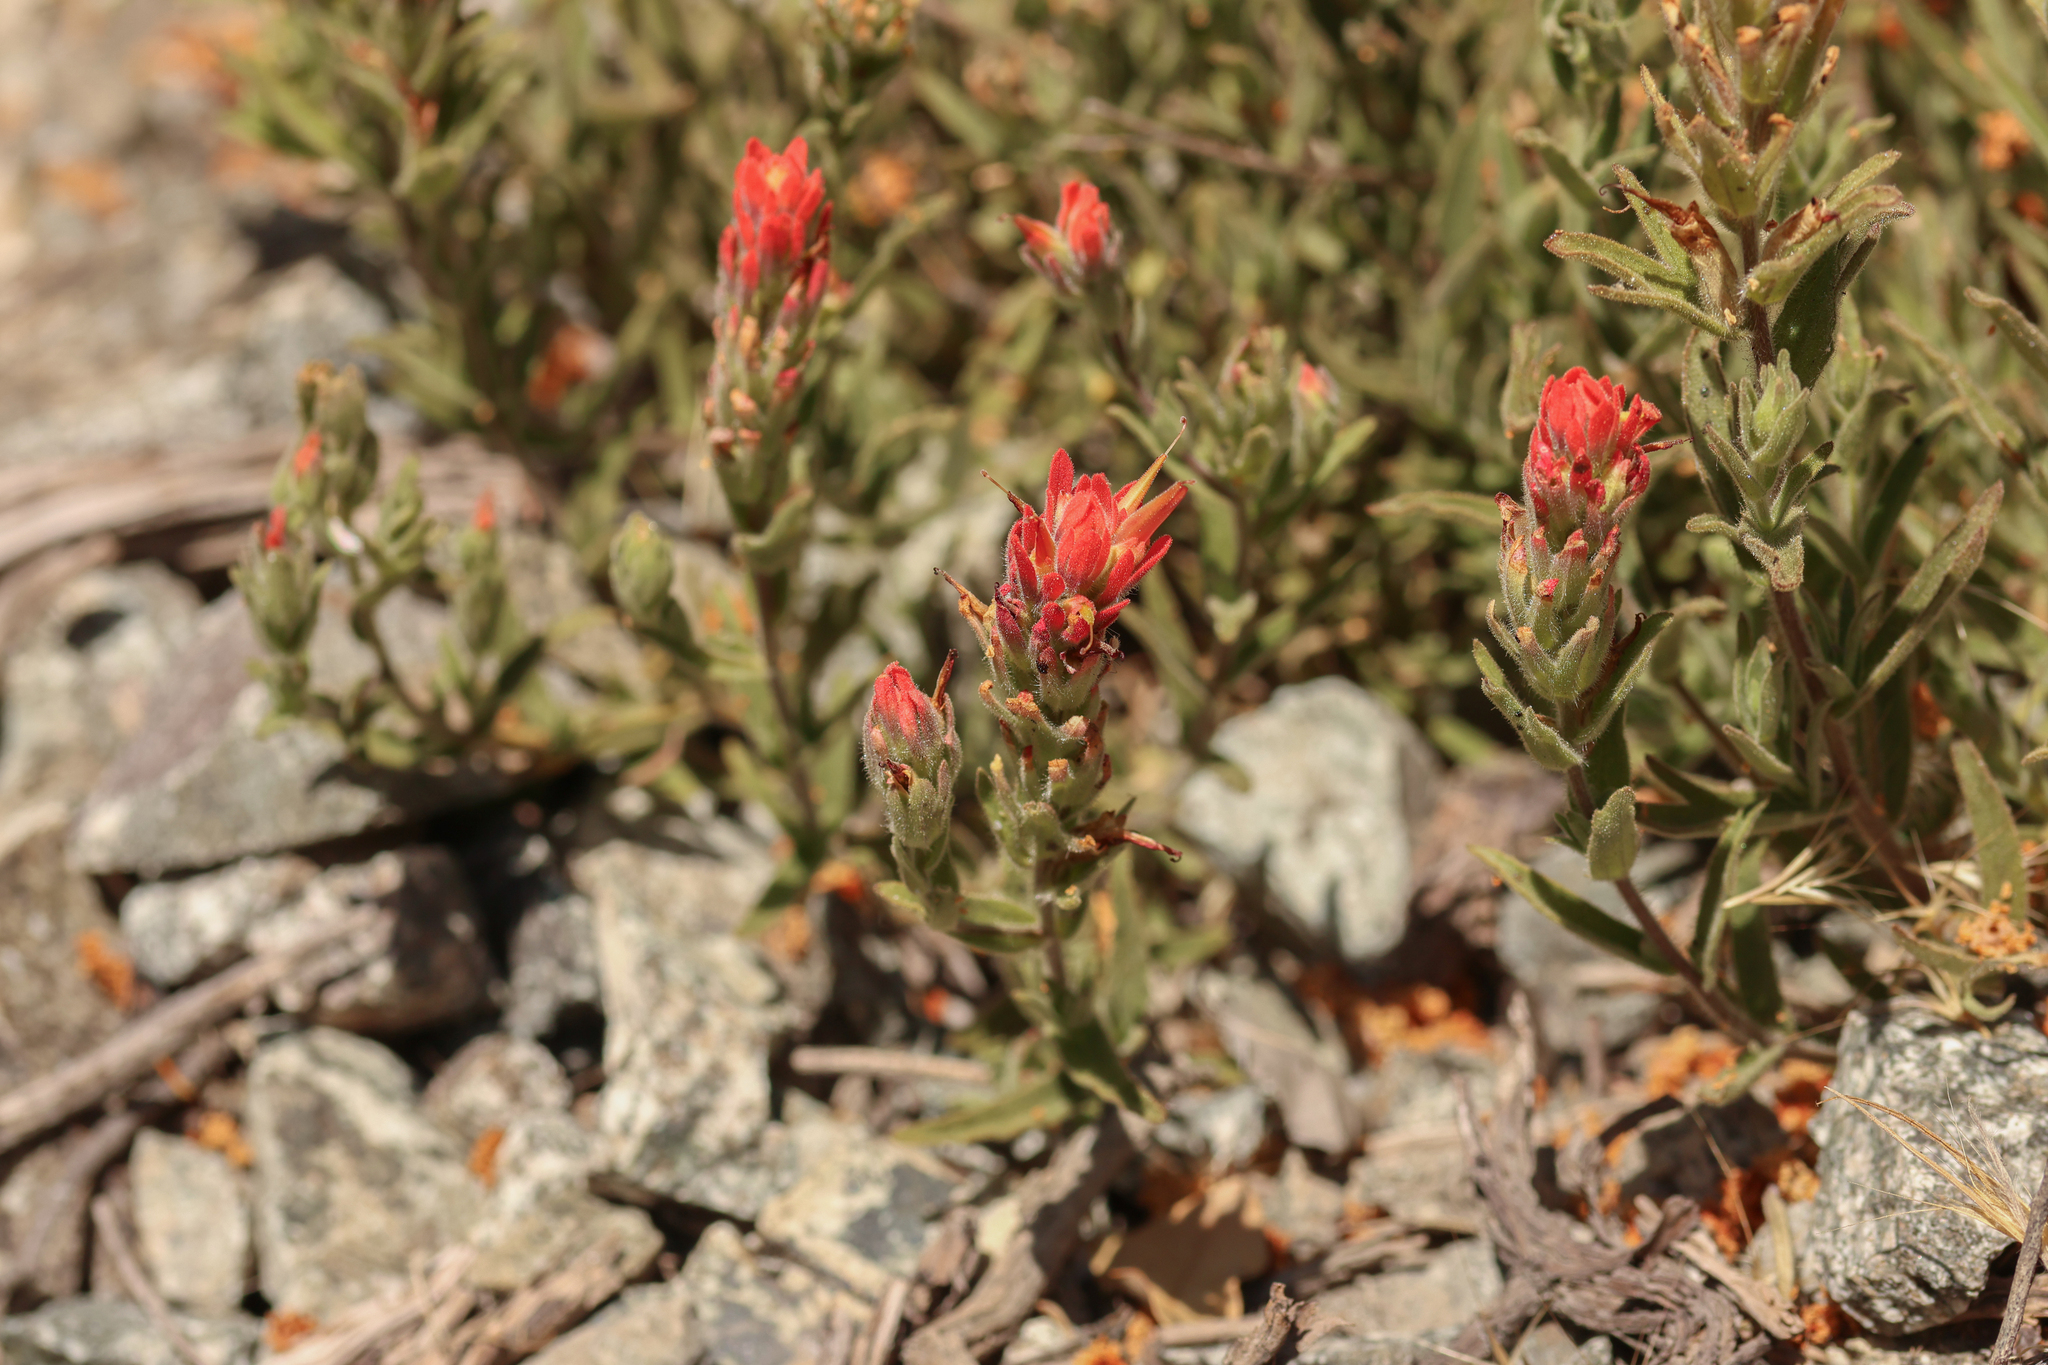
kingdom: Plantae
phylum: Tracheophyta
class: Magnoliopsida
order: Lamiales
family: Orobanchaceae
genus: Castilleja
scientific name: Castilleja martini
